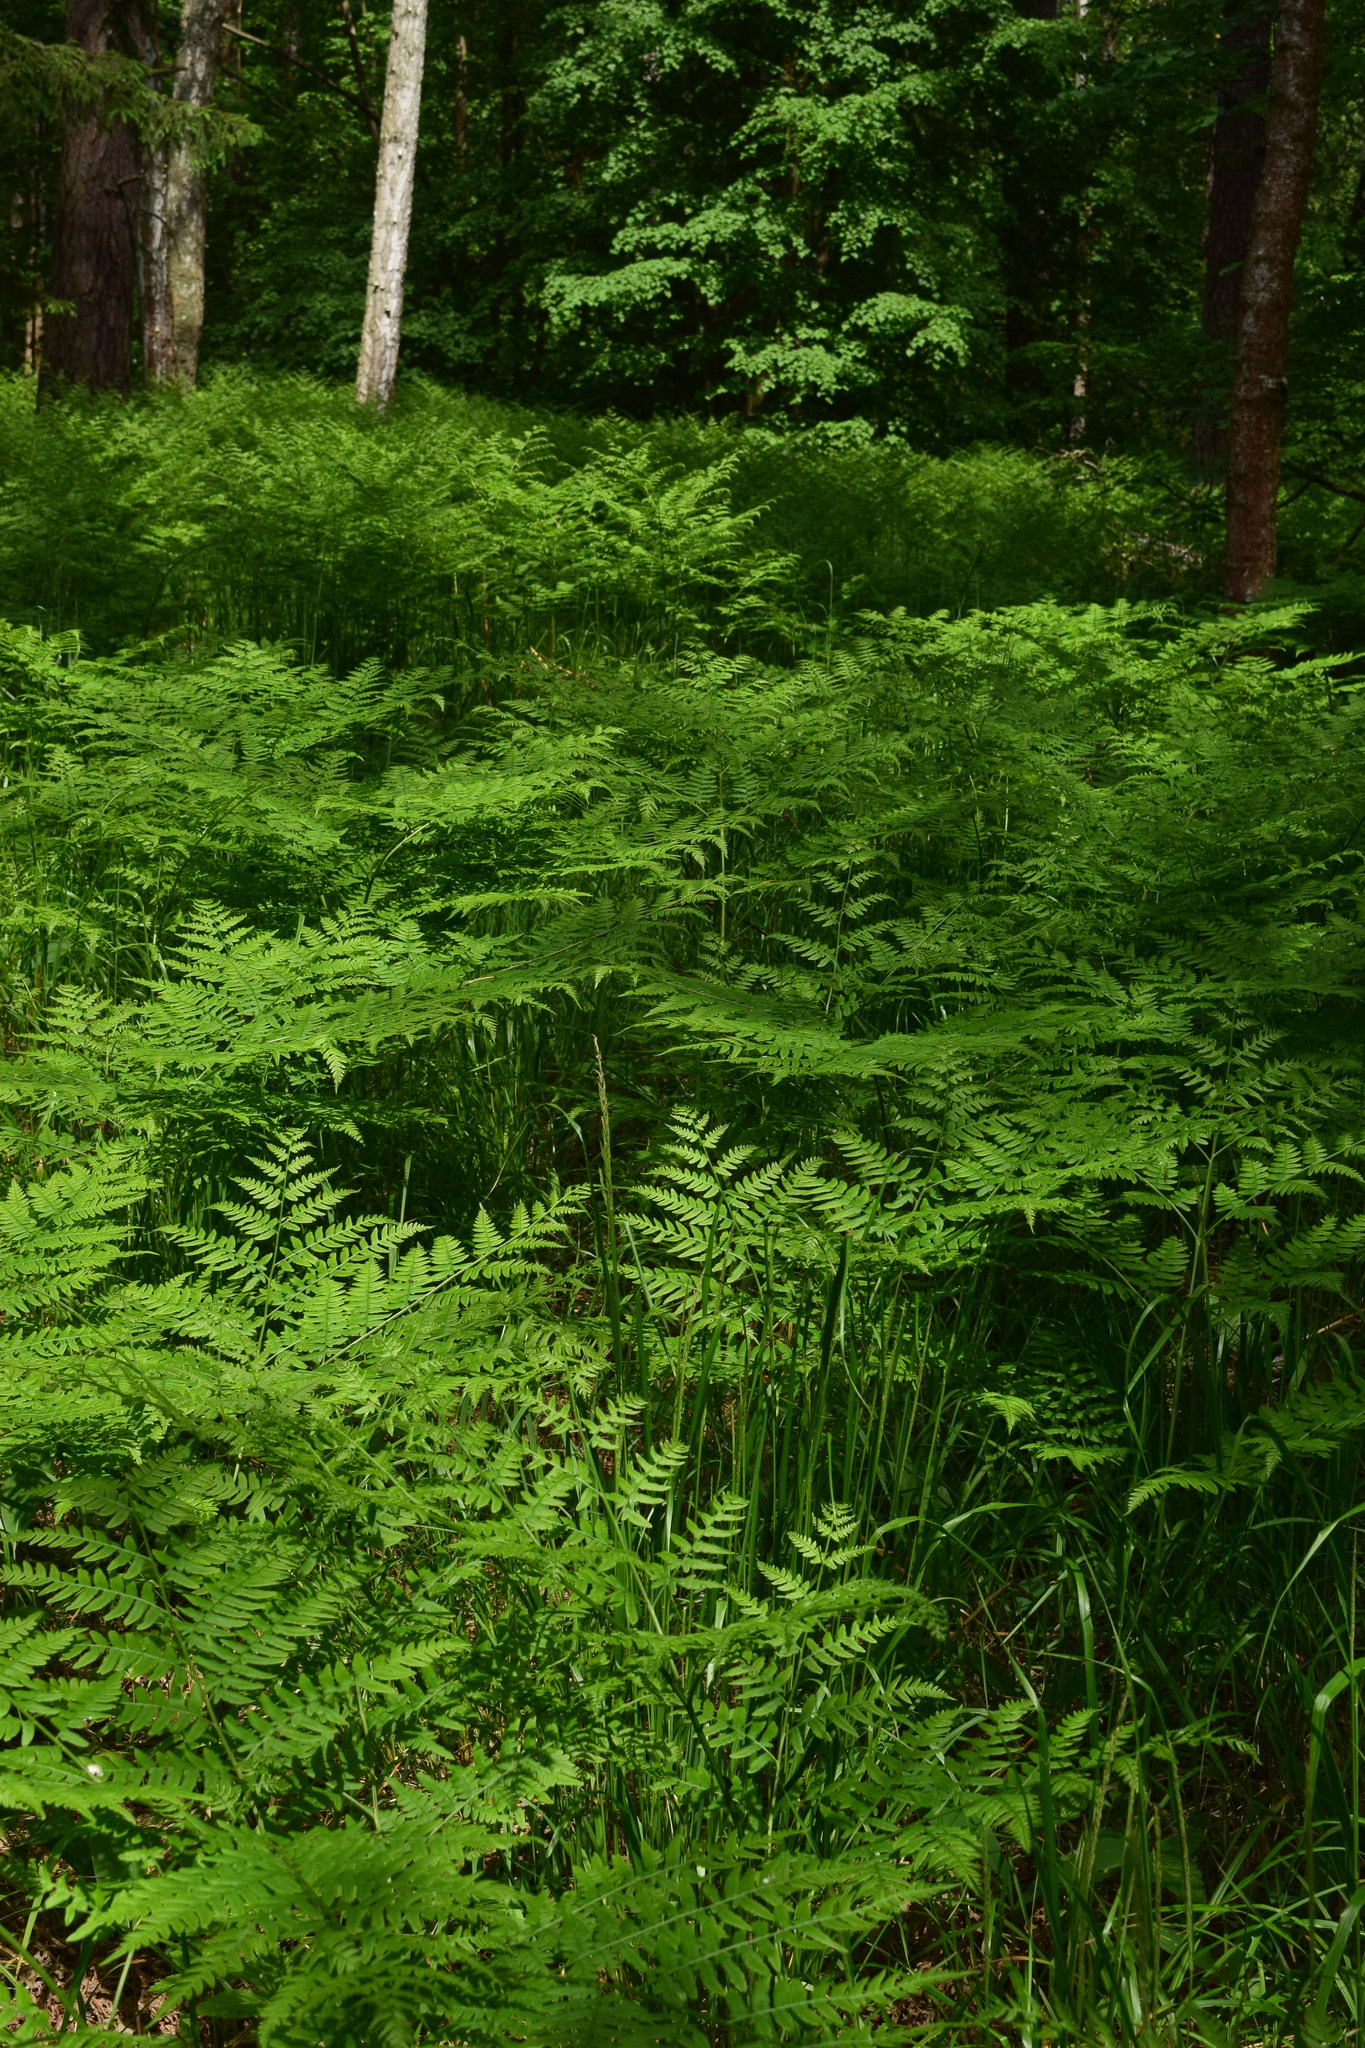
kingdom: Plantae
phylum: Tracheophyta
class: Polypodiopsida
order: Polypodiales
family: Dennstaedtiaceae
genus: Pteridium
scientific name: Pteridium aquilinum
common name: Bracken
